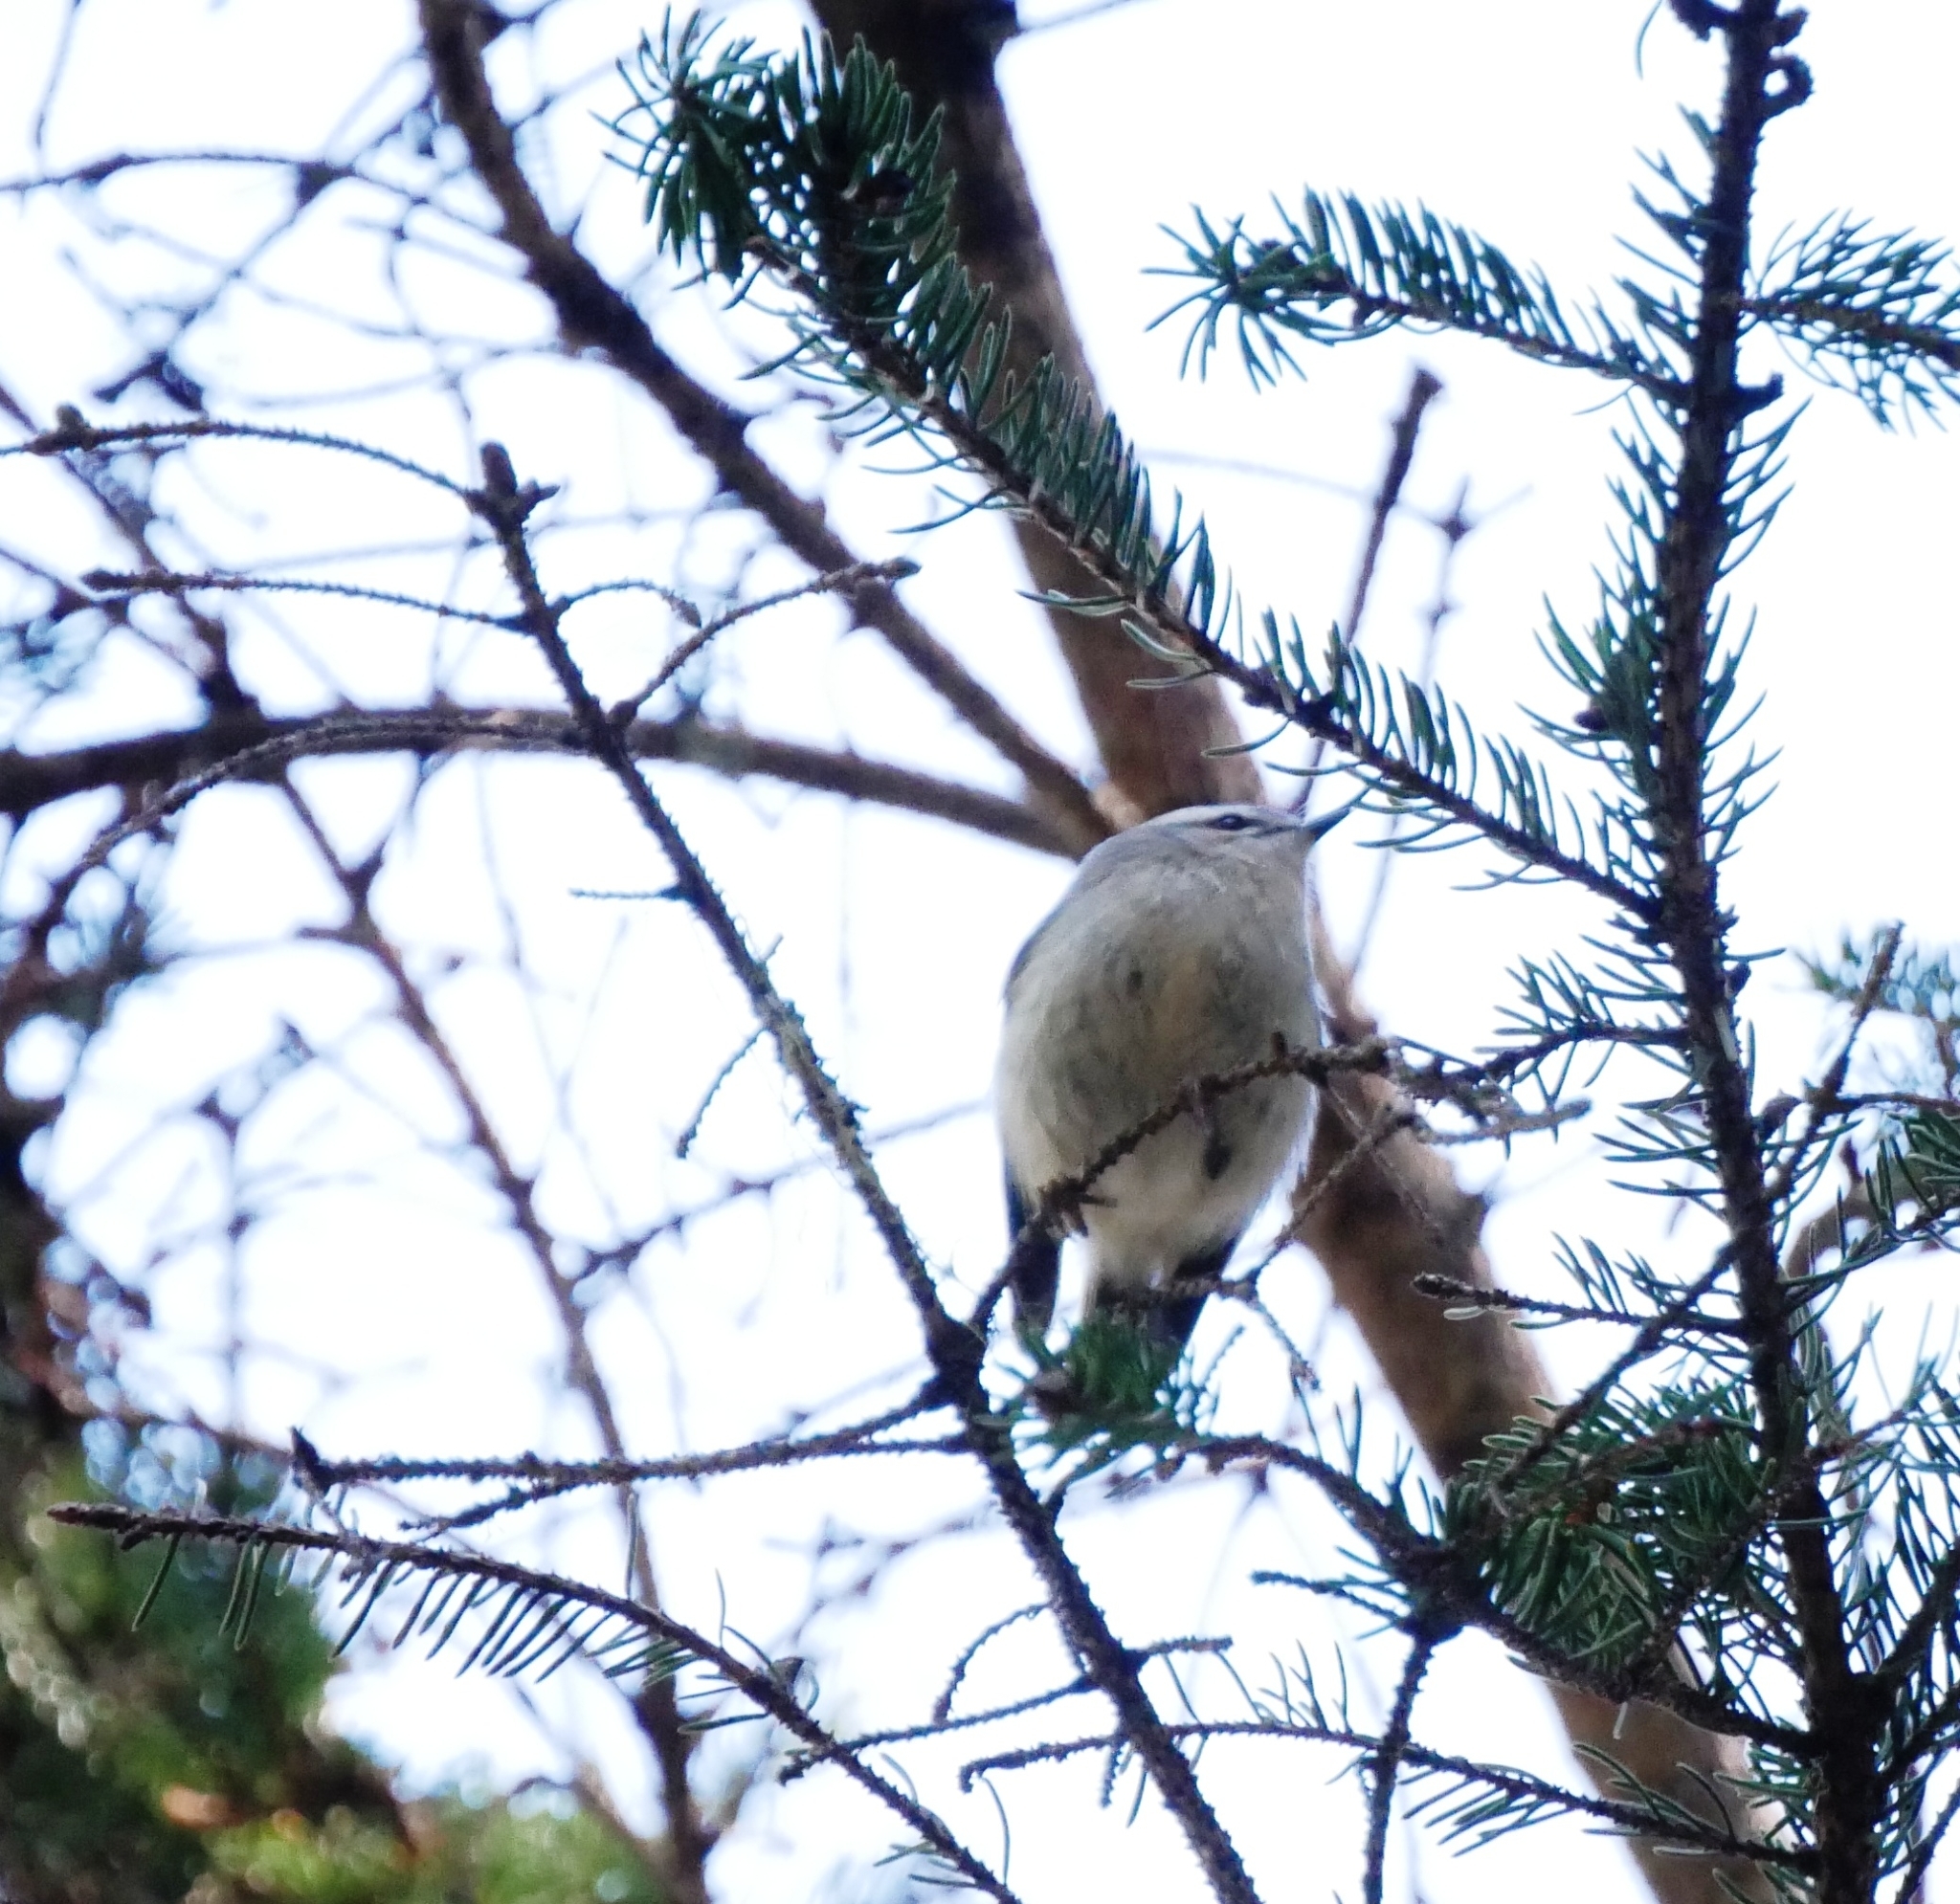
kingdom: Animalia
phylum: Chordata
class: Aves
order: Passeriformes
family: Regulidae
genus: Regulus
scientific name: Regulus satrapa
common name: Golden-crowned kinglet
